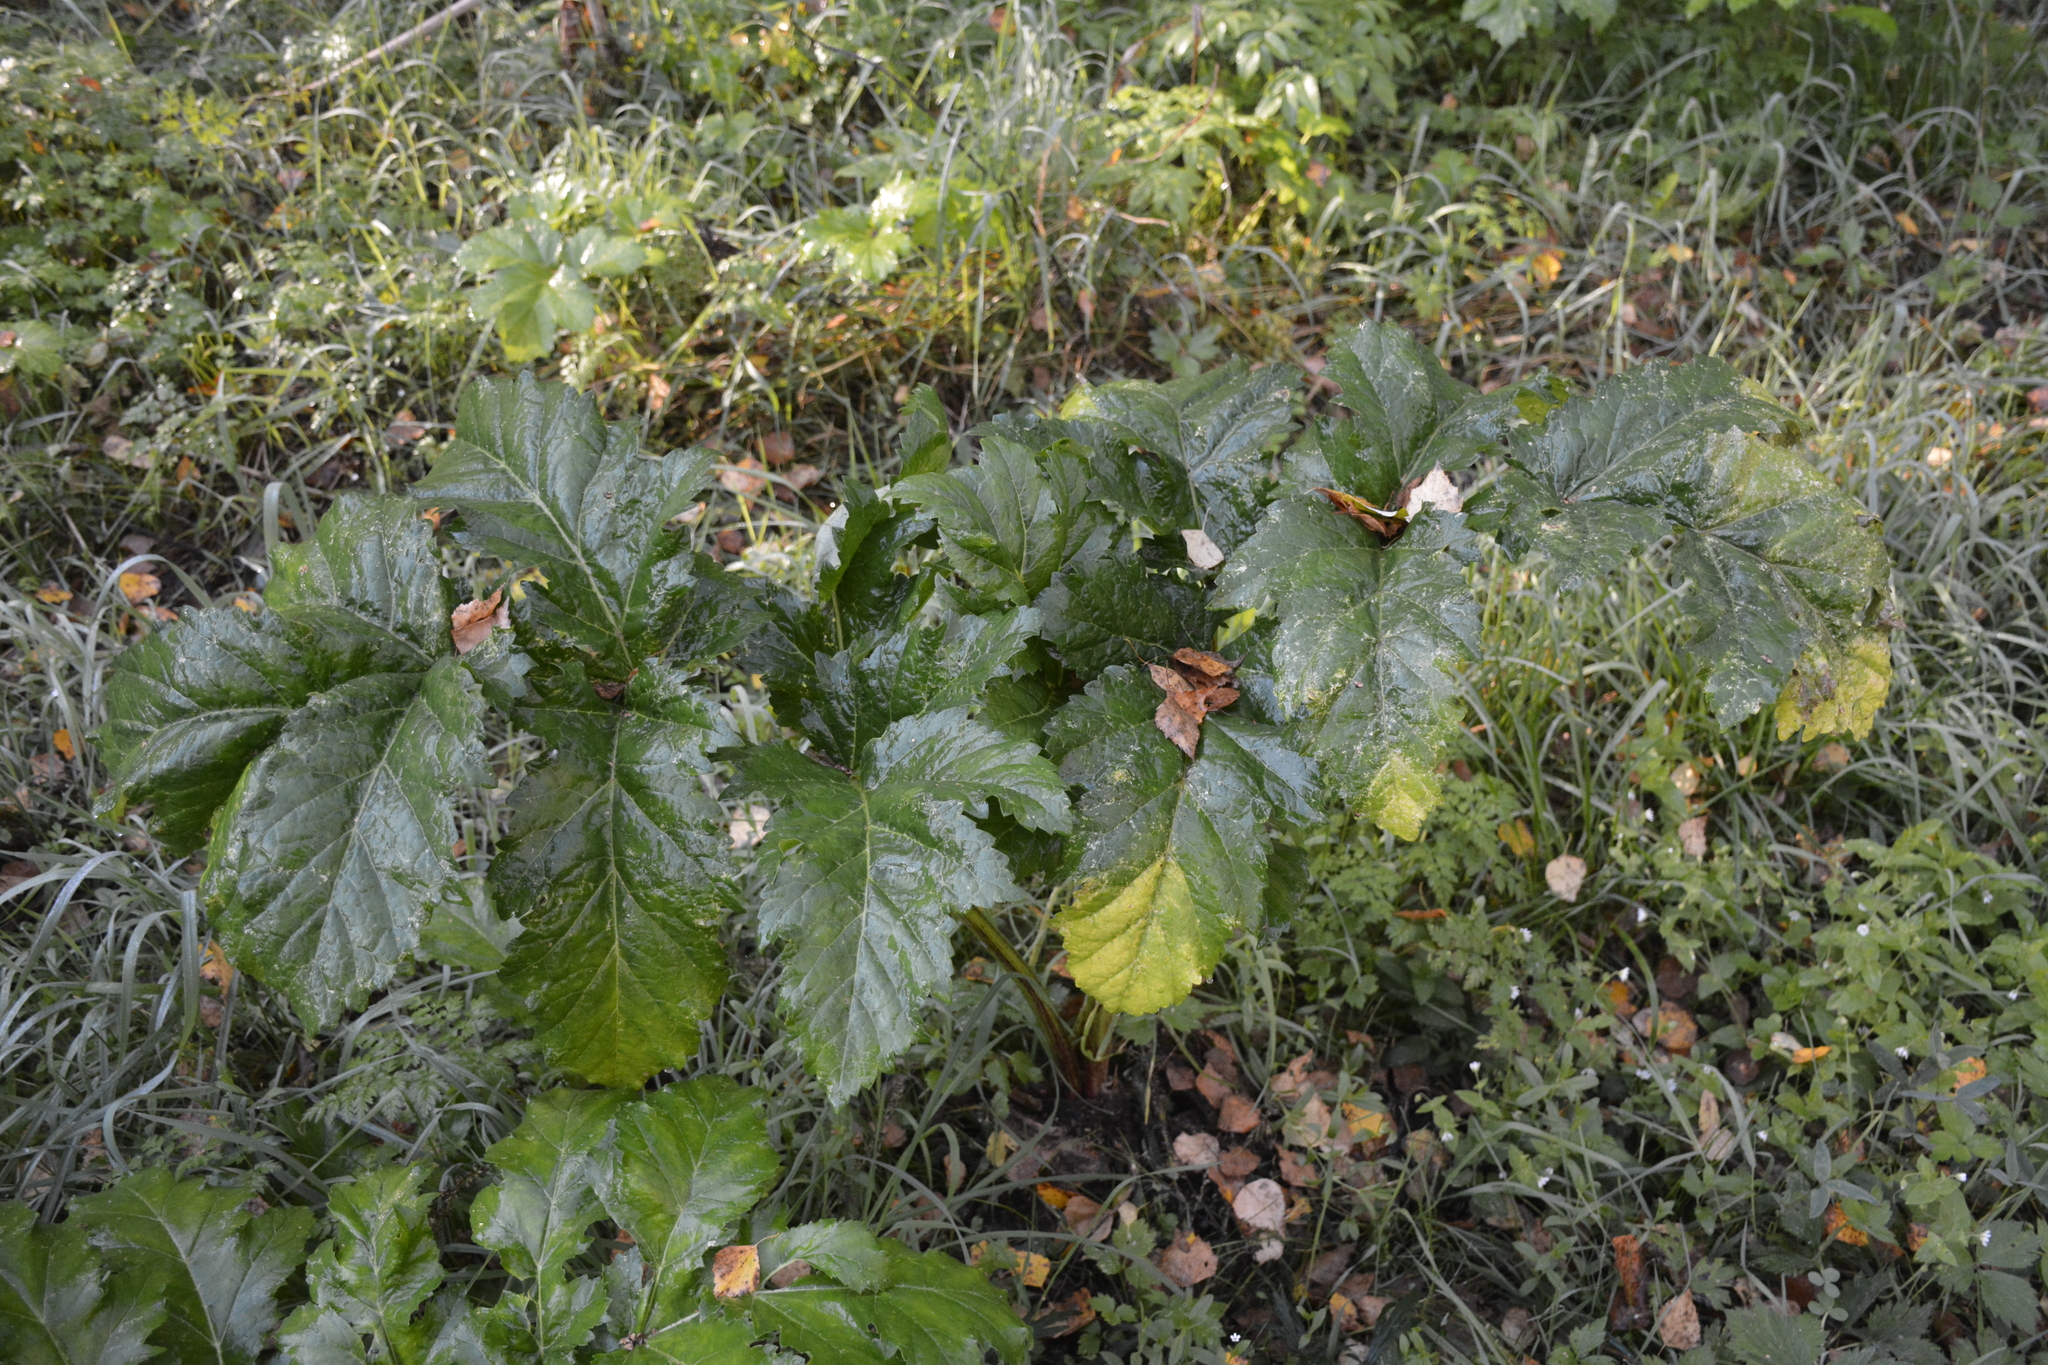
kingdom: Plantae
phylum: Tracheophyta
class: Magnoliopsida
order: Apiales
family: Apiaceae
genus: Heracleum
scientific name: Heracleum sosnowskyi
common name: Sosnowsky's hogweed
